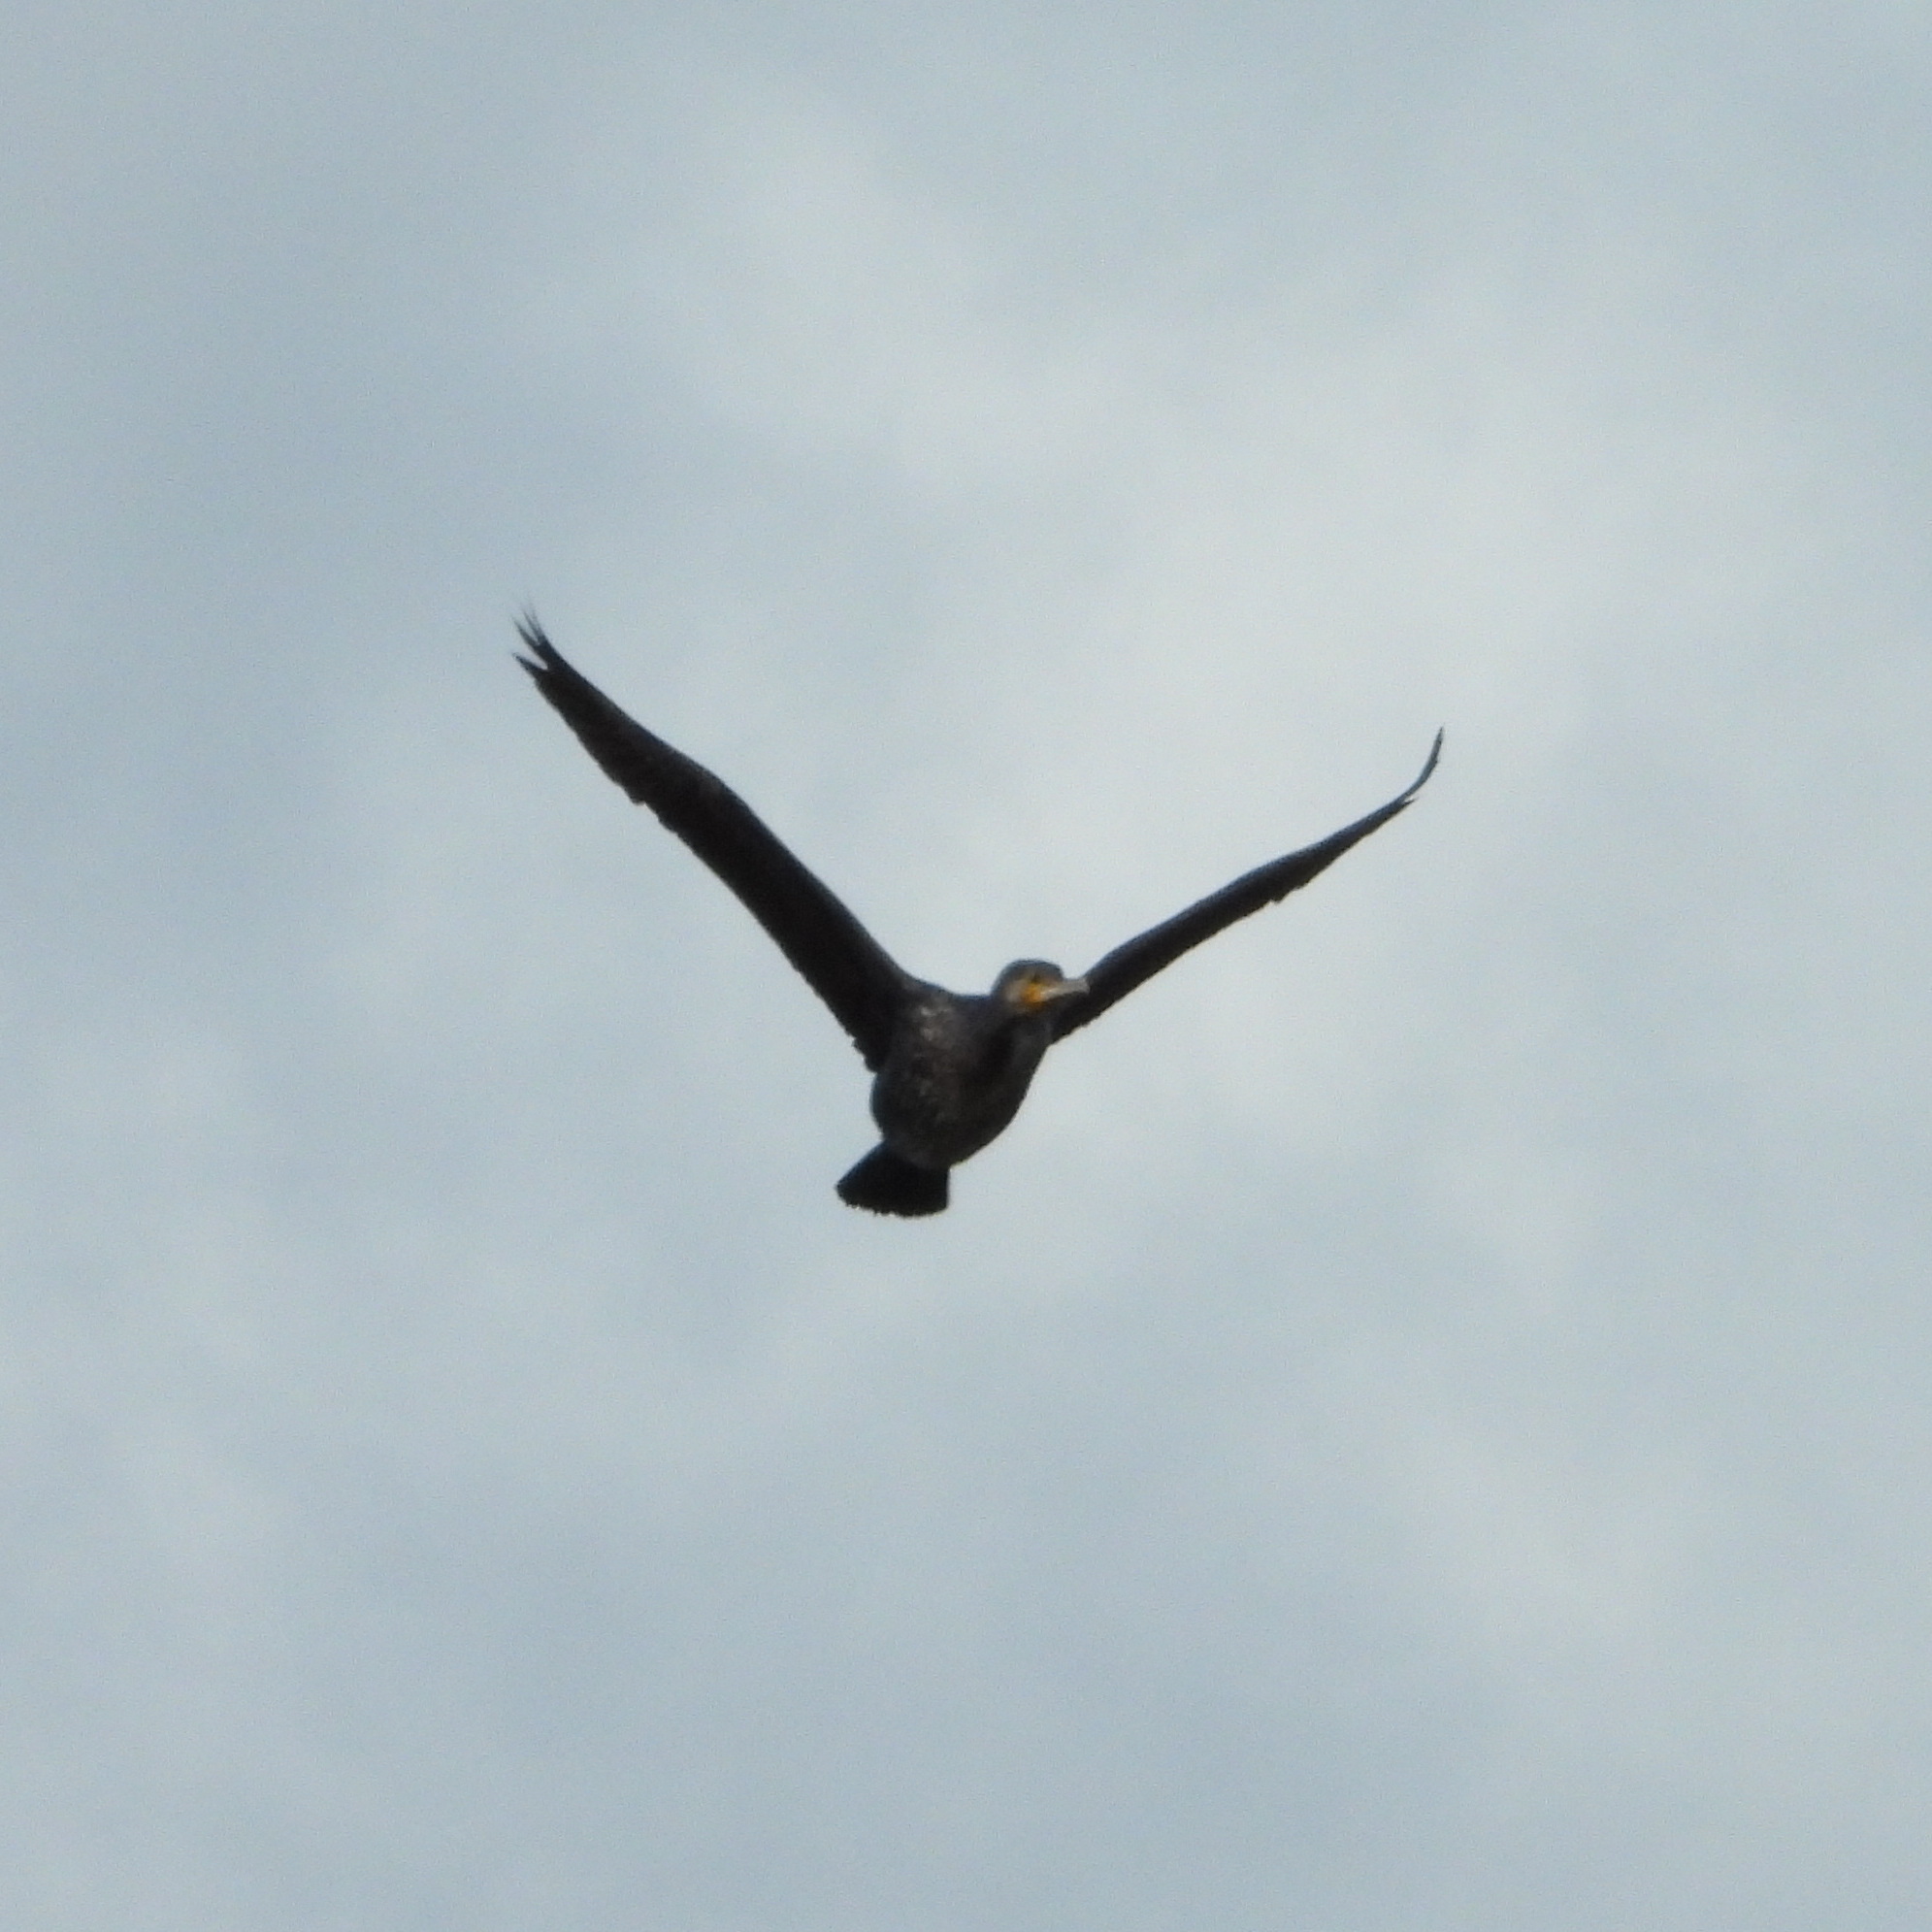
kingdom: Animalia
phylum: Chordata
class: Aves
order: Suliformes
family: Phalacrocoracidae
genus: Phalacrocorax
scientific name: Phalacrocorax carbo
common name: Great cormorant
